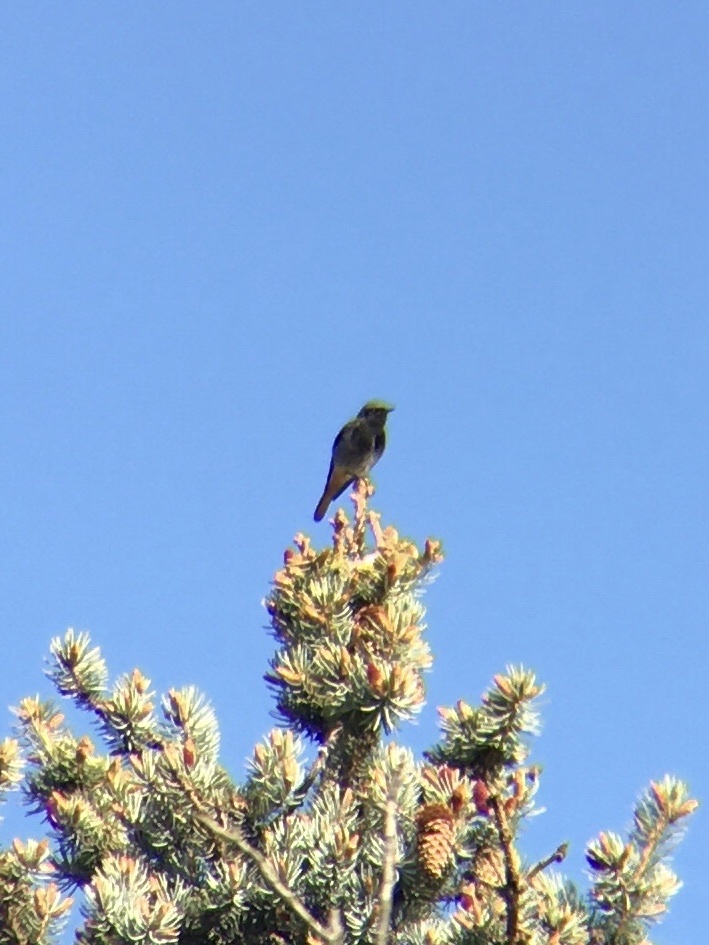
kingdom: Animalia
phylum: Chordata
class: Aves
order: Passeriformes
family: Muscicapidae
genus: Phoenicurus
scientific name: Phoenicurus ochruros
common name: Black redstart
